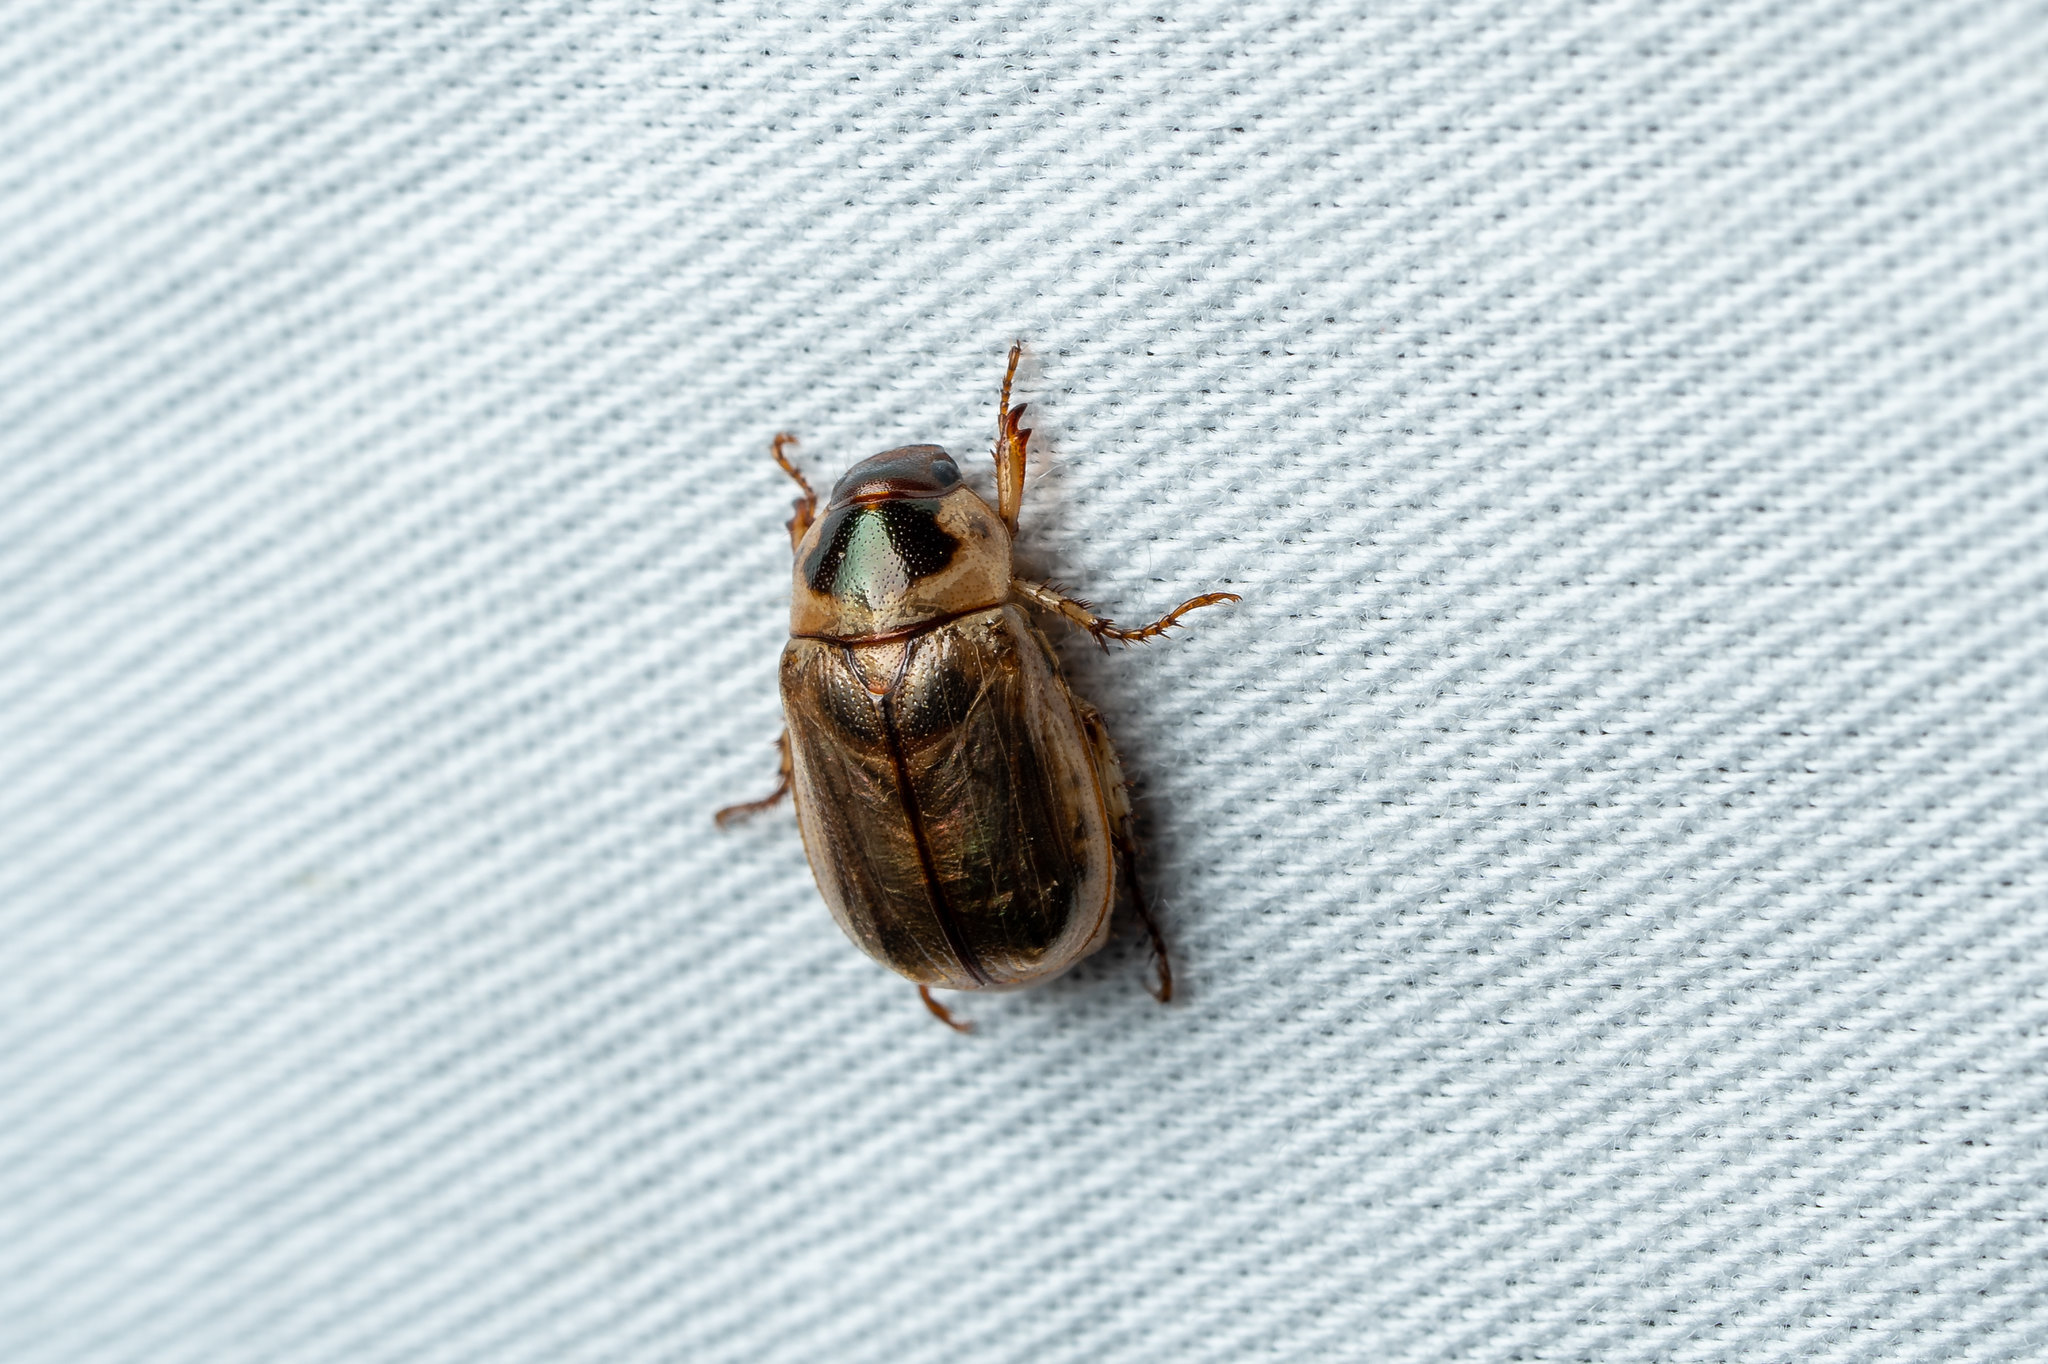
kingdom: Animalia
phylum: Arthropoda
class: Insecta
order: Coleoptera
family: Scarabaeidae
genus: Anomala
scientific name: Anomala innuba
